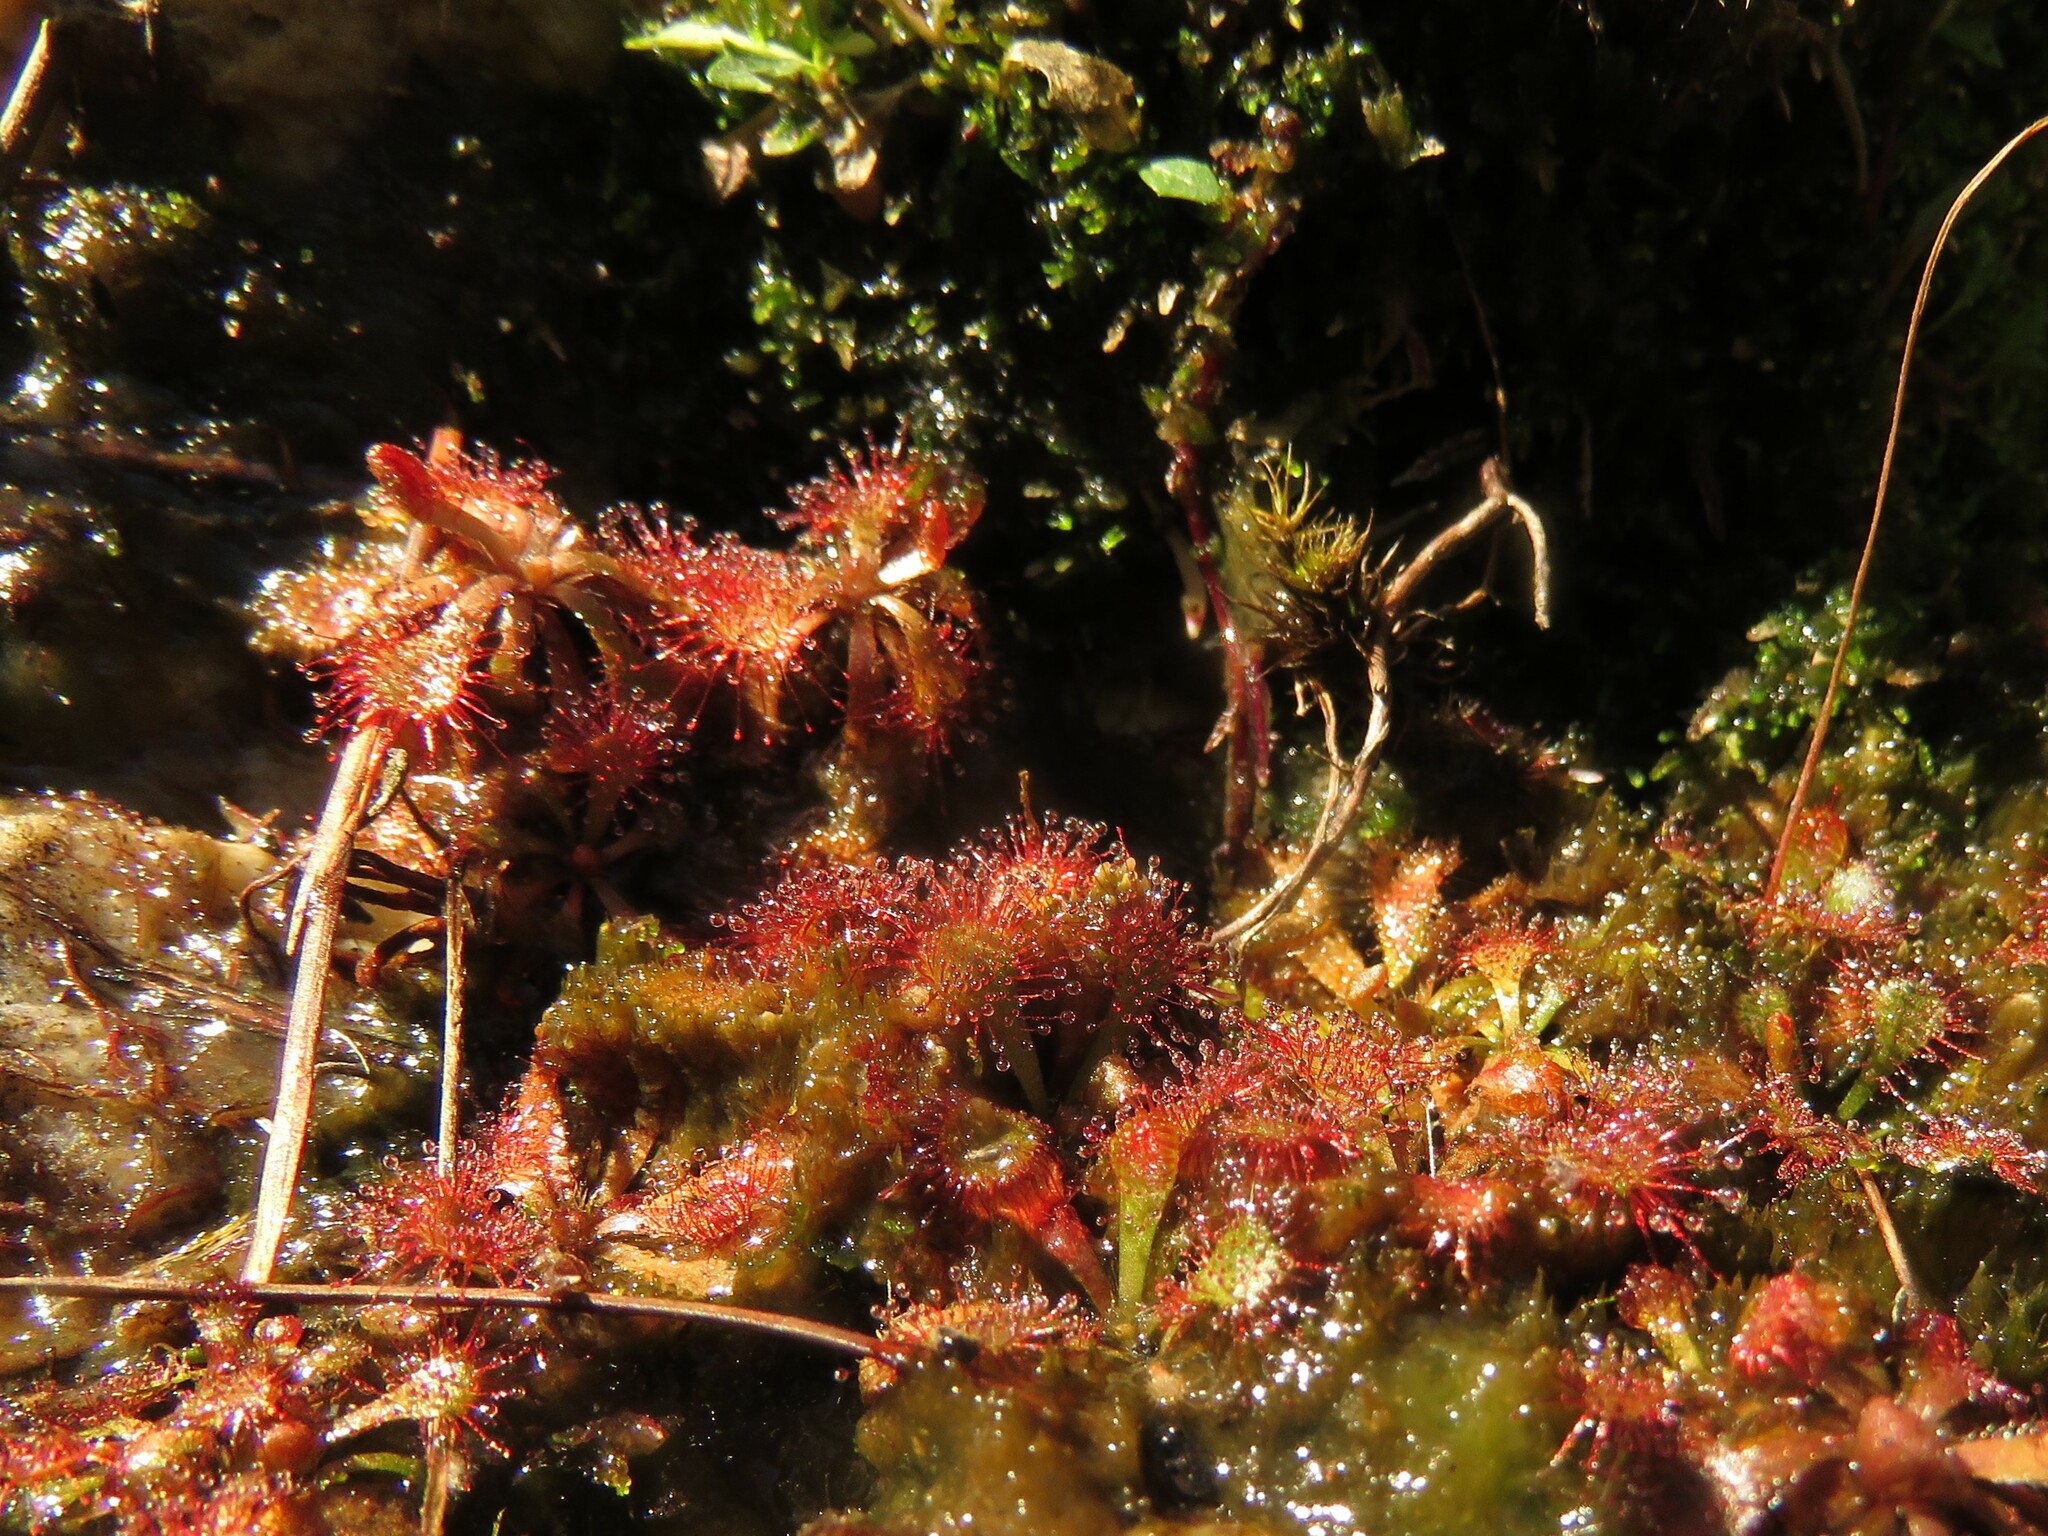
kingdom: Plantae
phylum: Tracheophyta
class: Magnoliopsida
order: Caryophyllales
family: Droseraceae
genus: Drosera
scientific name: Drosera aliciae
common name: Alice sundew
